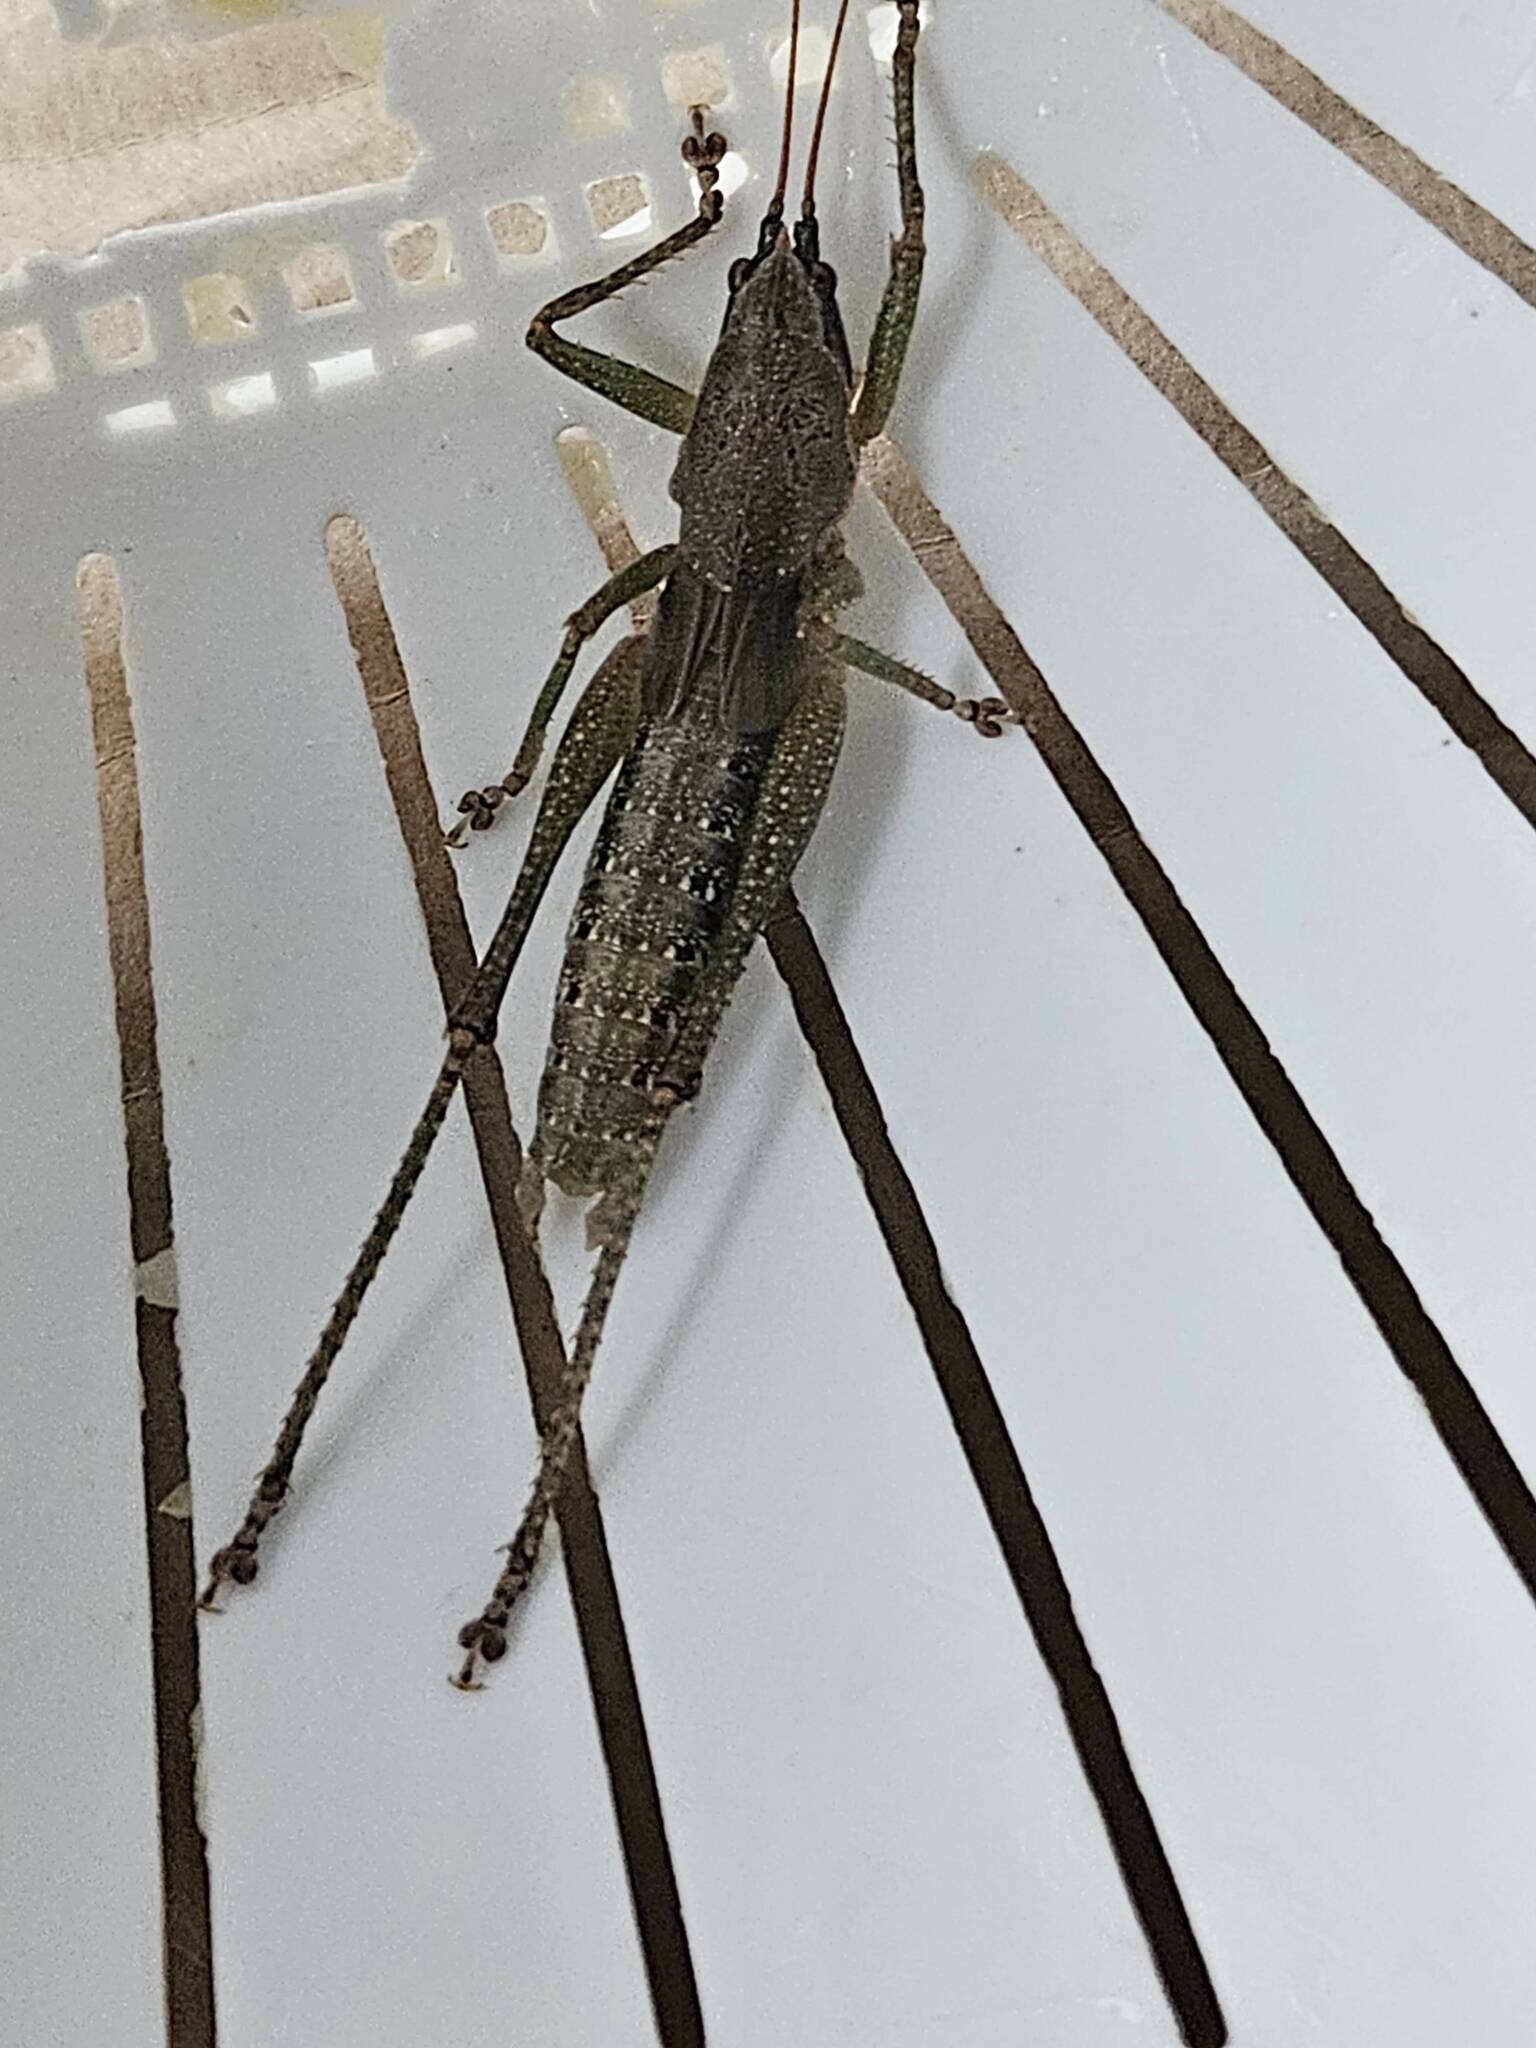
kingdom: Animalia
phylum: Arthropoda
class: Insecta
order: Orthoptera
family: Tettigoniidae
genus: Austrosalomona
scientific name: Austrosalomona falcata
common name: Olive-green coastal katydid
